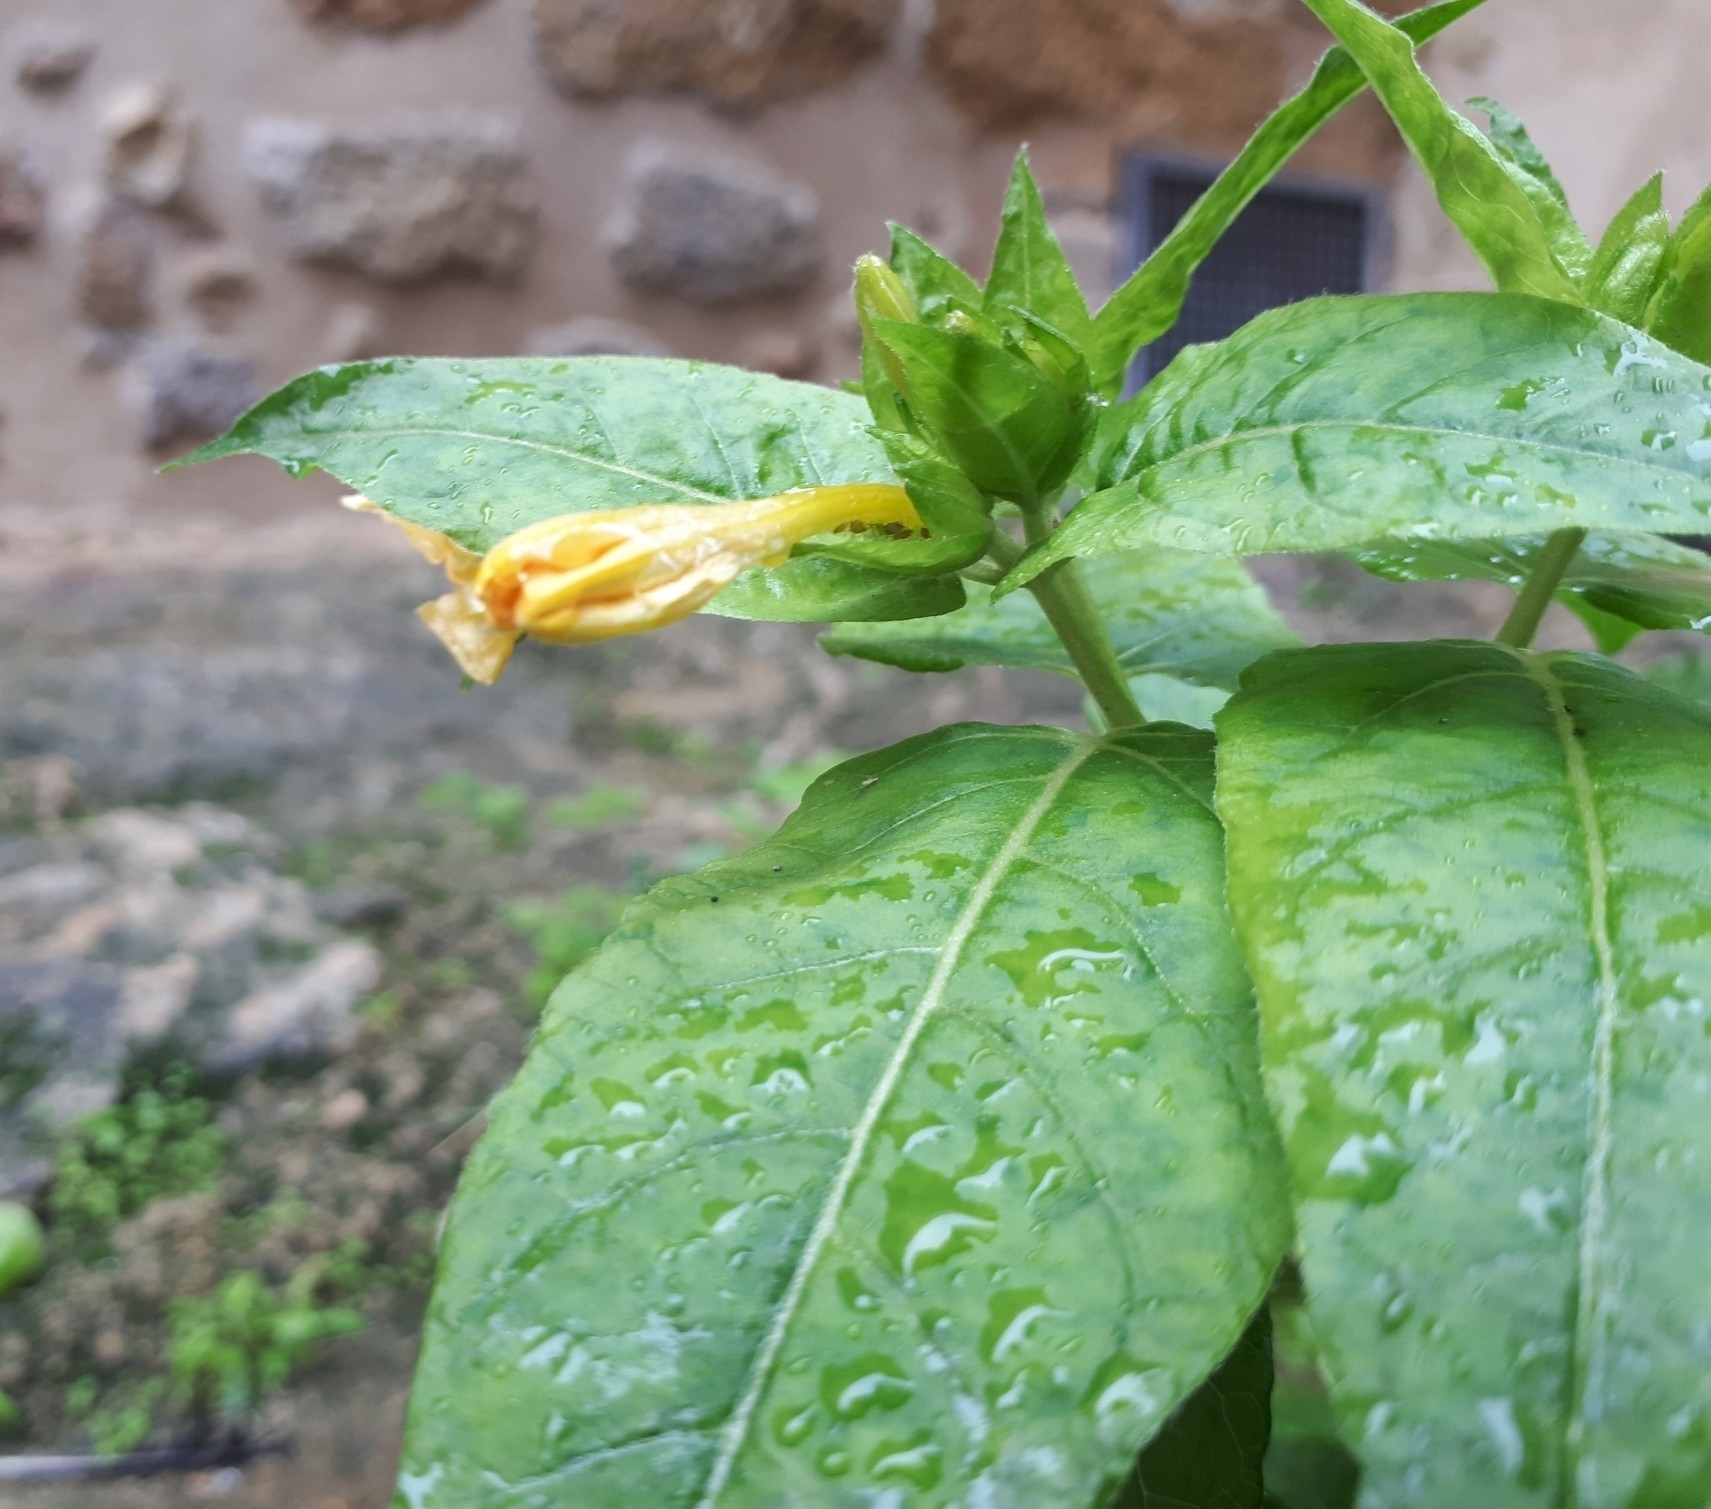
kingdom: Plantae
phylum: Tracheophyta
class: Magnoliopsida
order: Caryophyllales
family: Nyctaginaceae
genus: Mirabilis
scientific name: Mirabilis jalapa
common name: Marvel-of-peru
